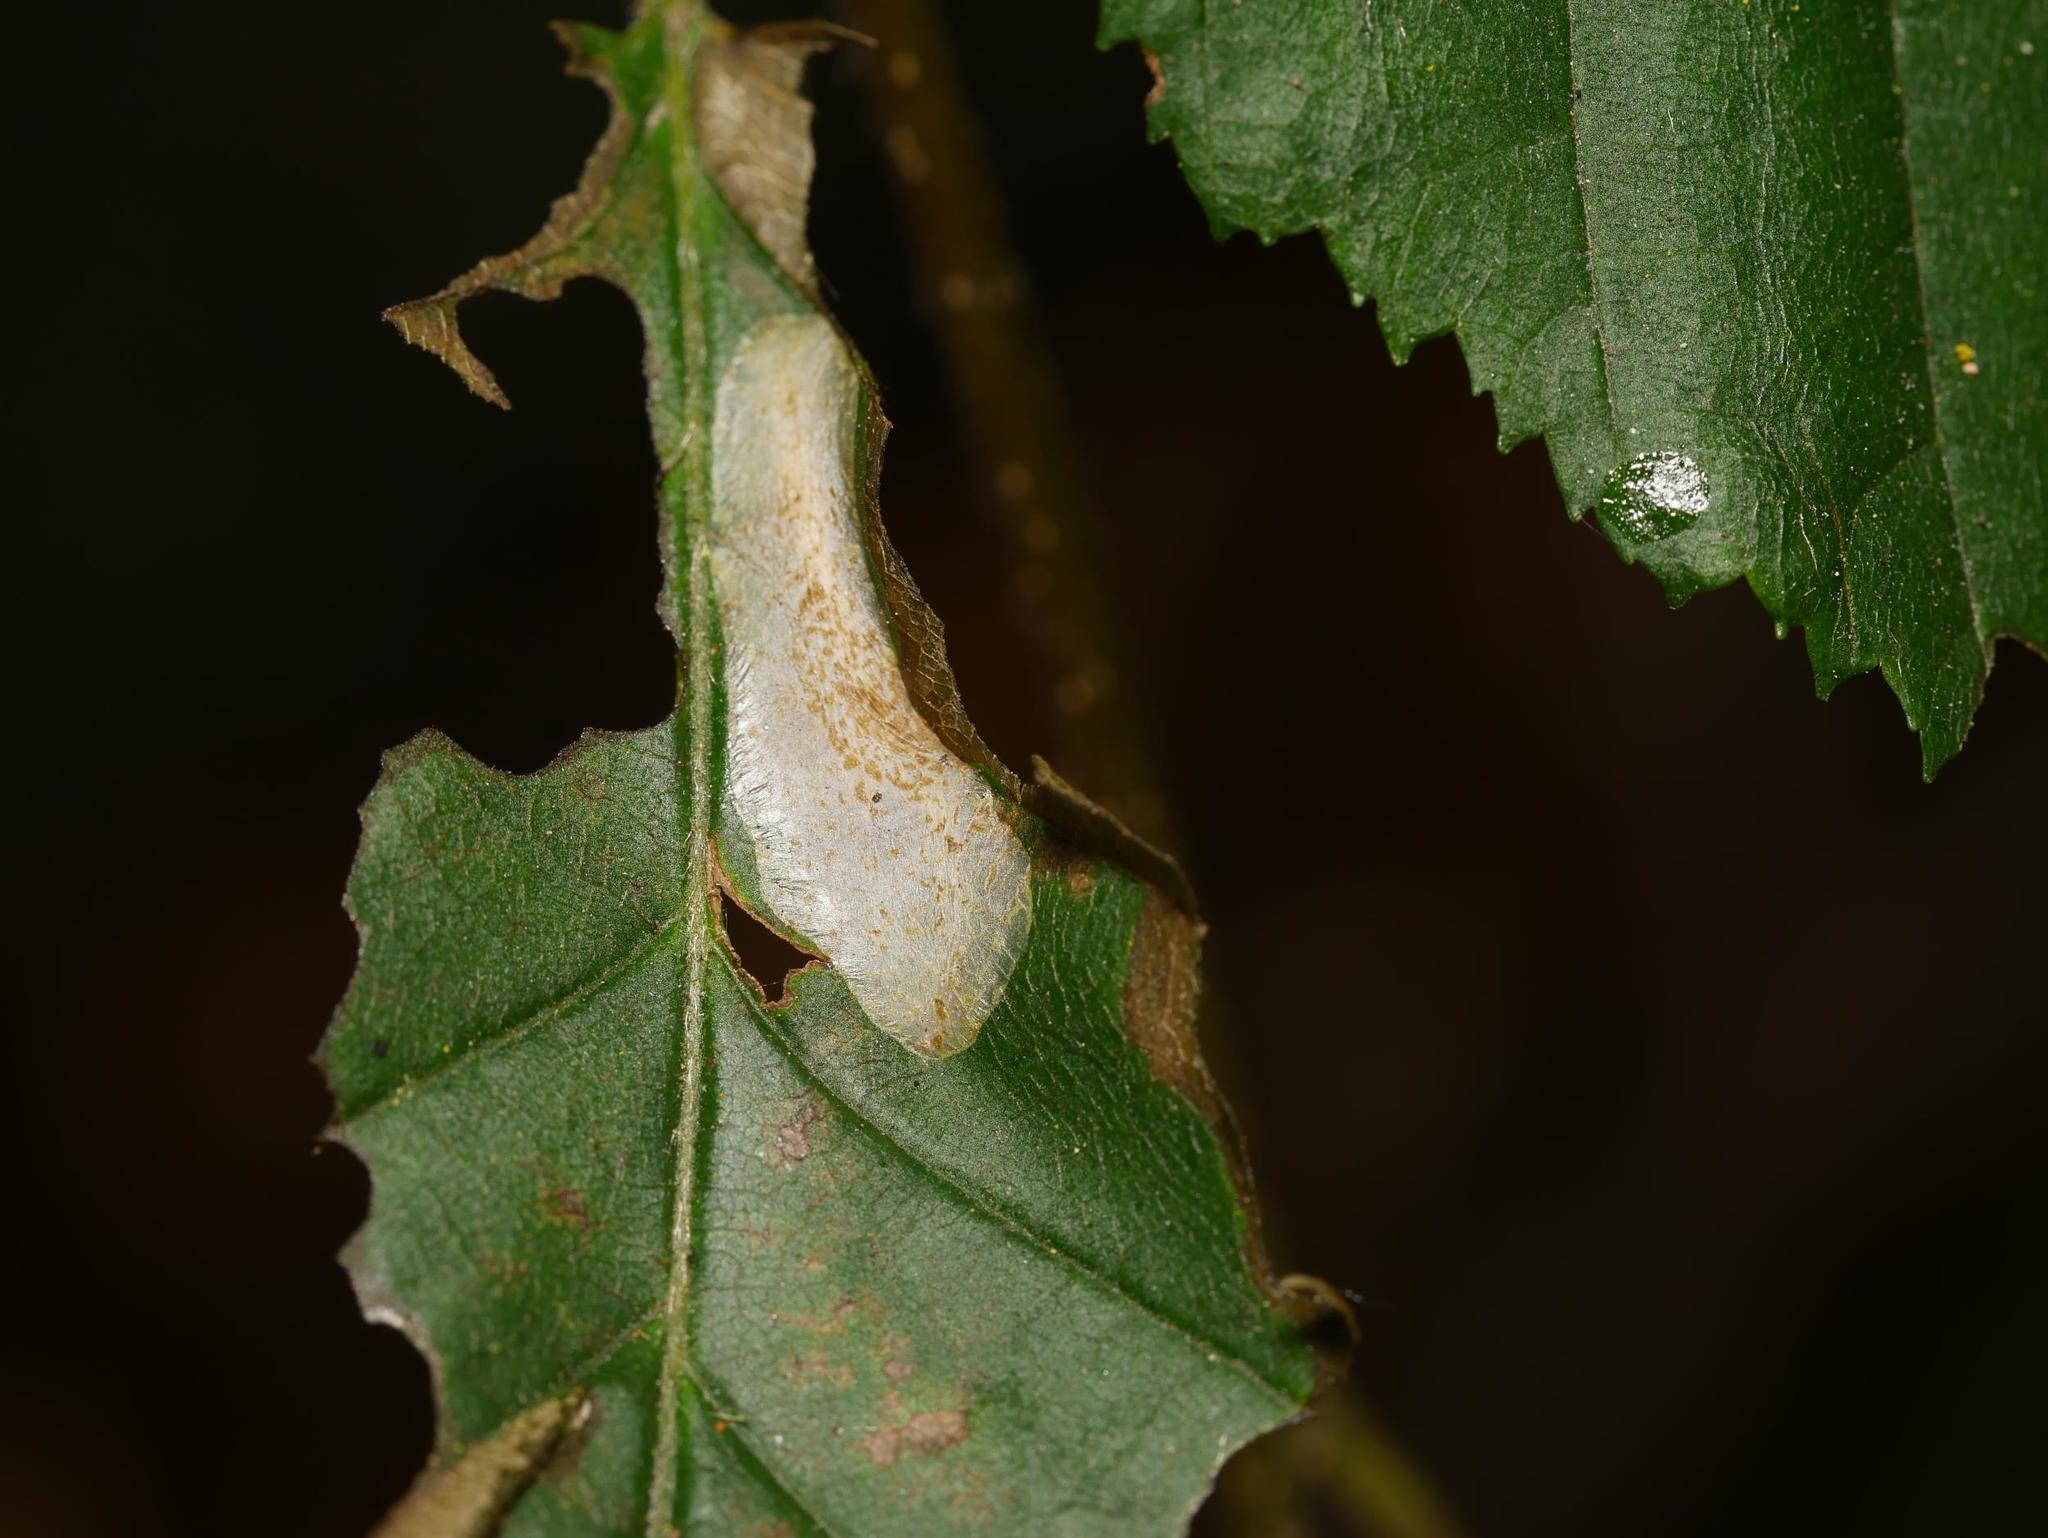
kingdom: Animalia
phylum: Arthropoda
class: Insecta
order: Lepidoptera
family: Gracillariidae
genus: Phyllonorycter
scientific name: Phyllonorycter esperella
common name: Dark hornbeam midget
